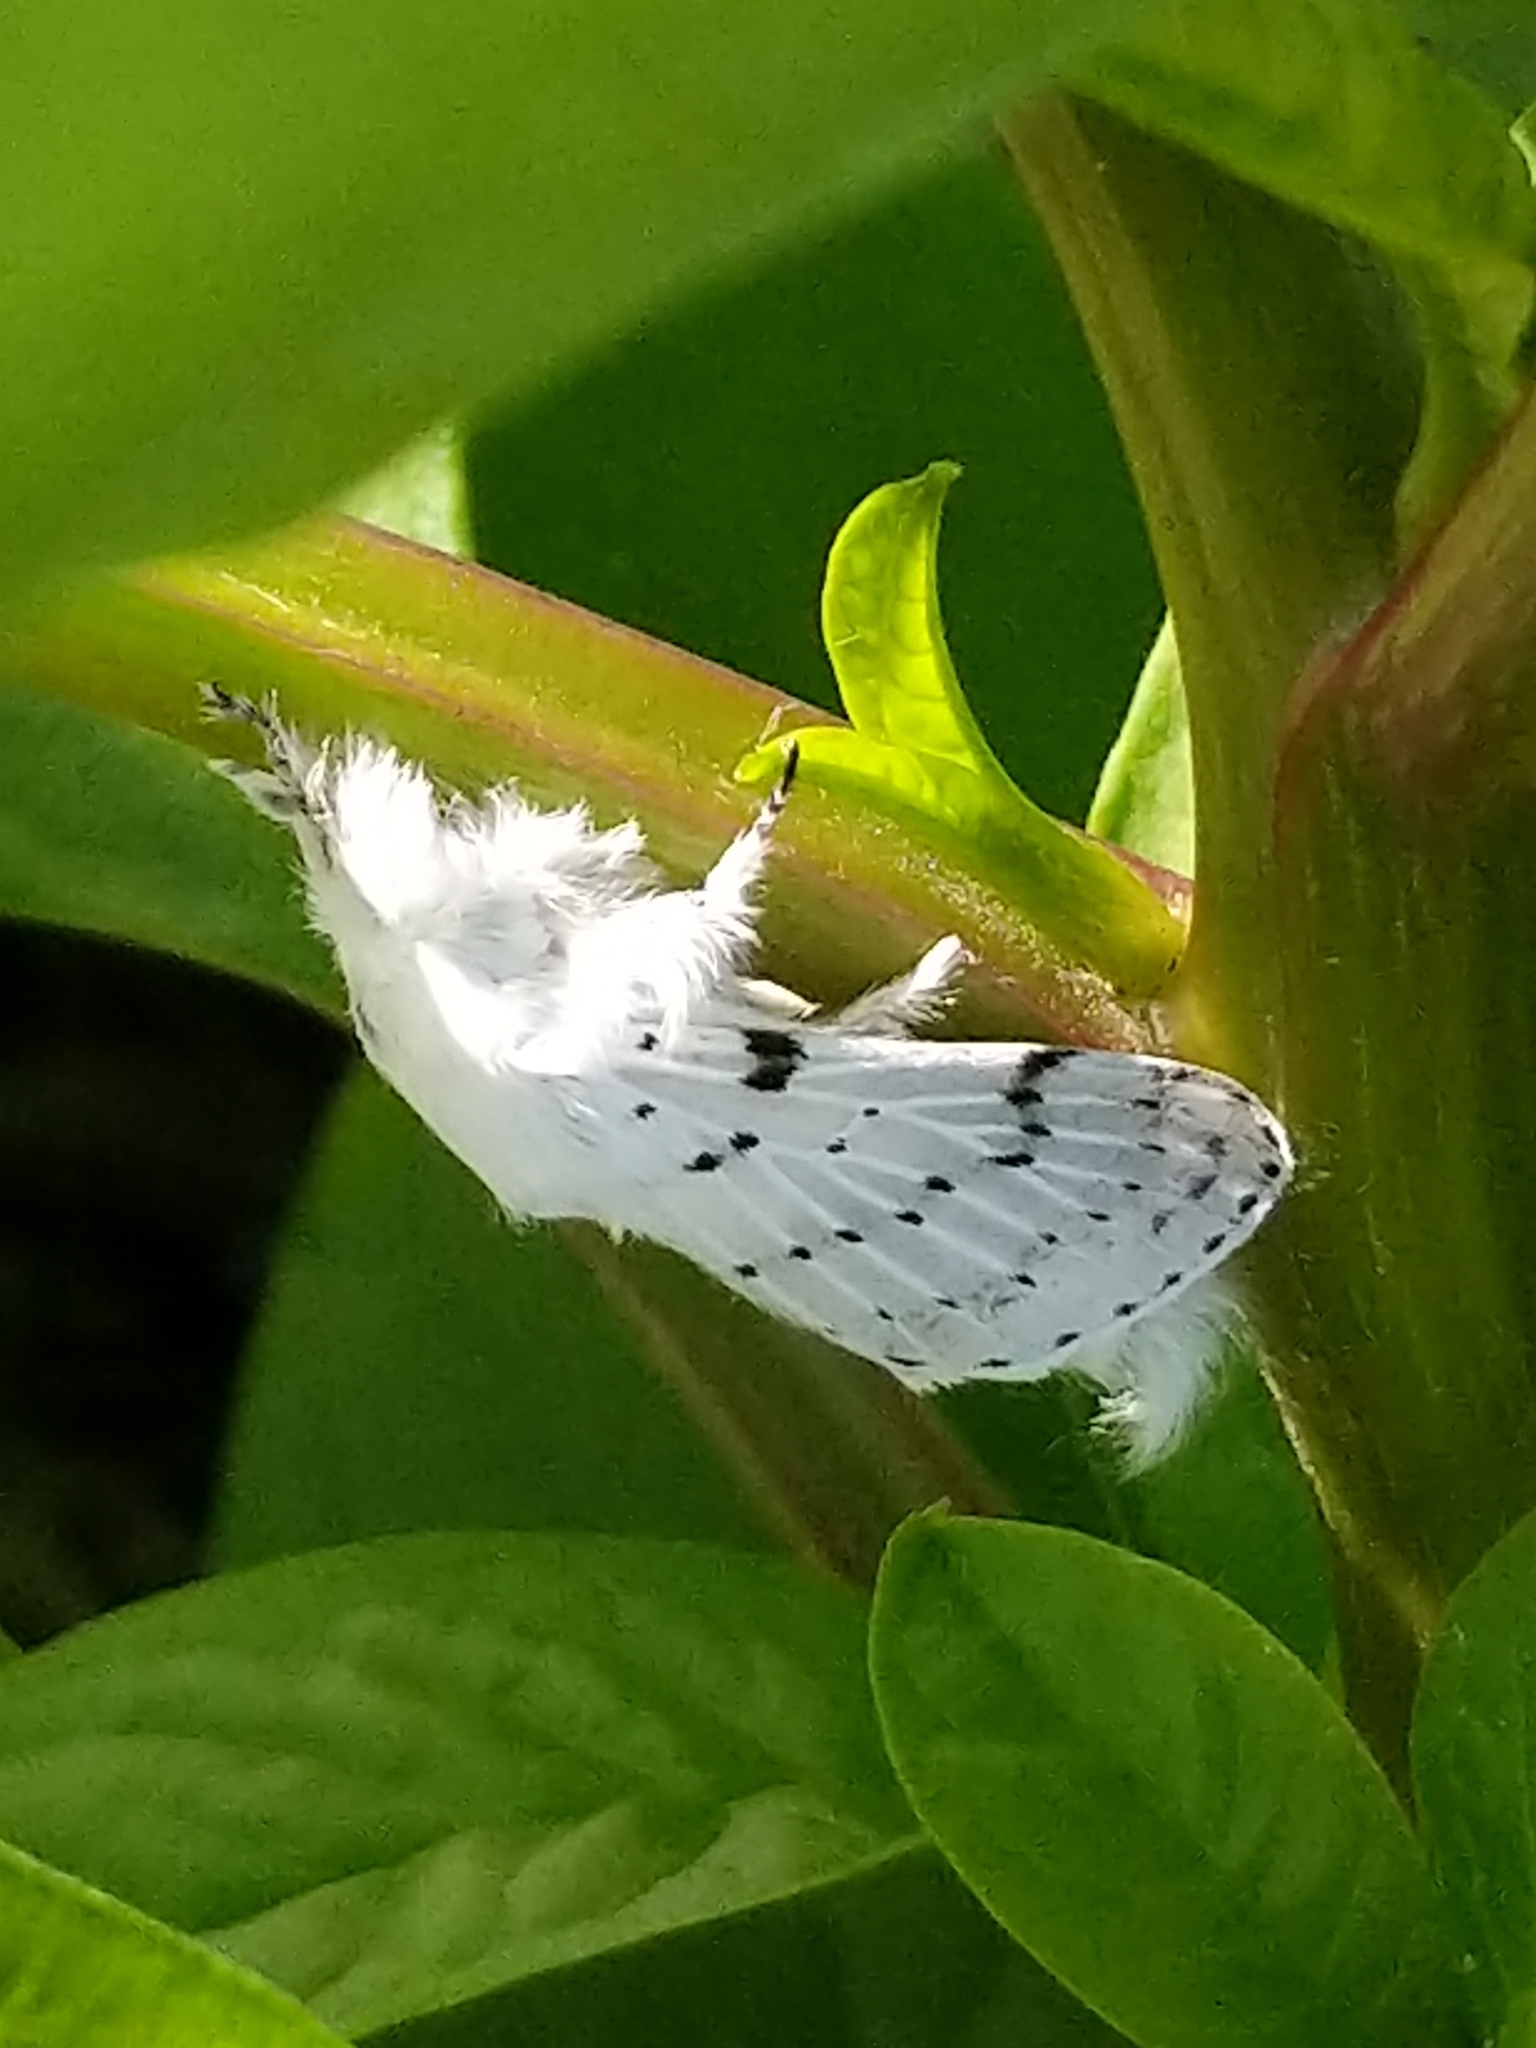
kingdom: Animalia
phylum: Arthropoda
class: Insecta
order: Lepidoptera
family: Lasiocampidae
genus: Artace
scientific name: Artace cribrarius
